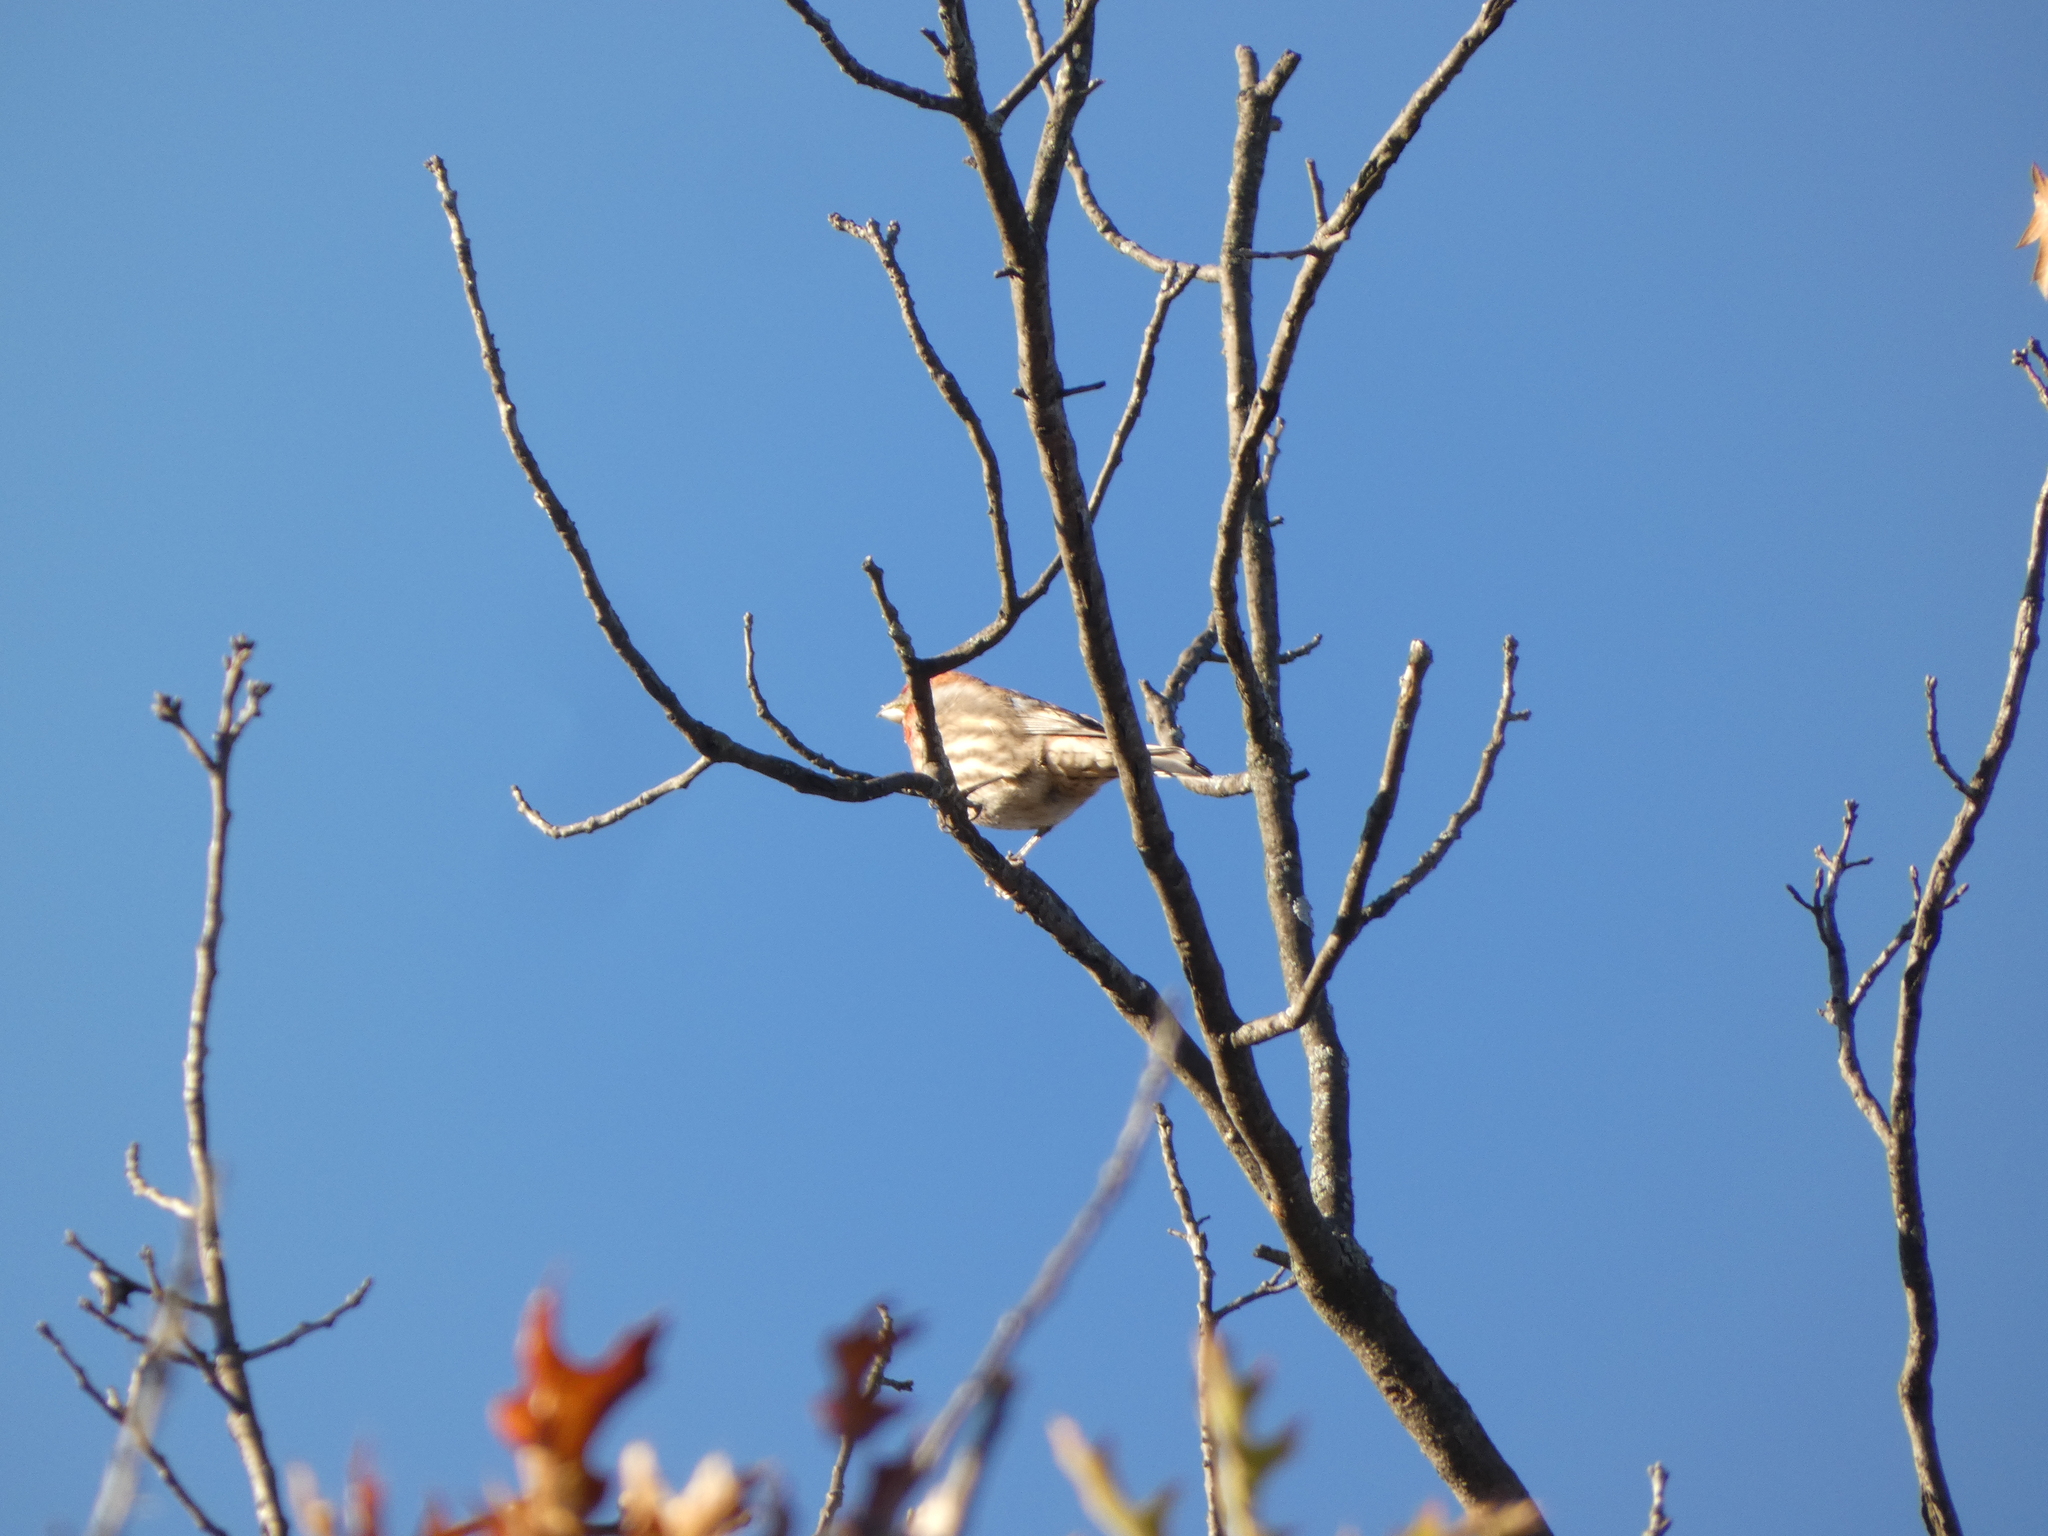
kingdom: Animalia
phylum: Chordata
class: Aves
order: Passeriformes
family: Fringillidae
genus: Haemorhous
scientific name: Haemorhous mexicanus
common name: House finch
